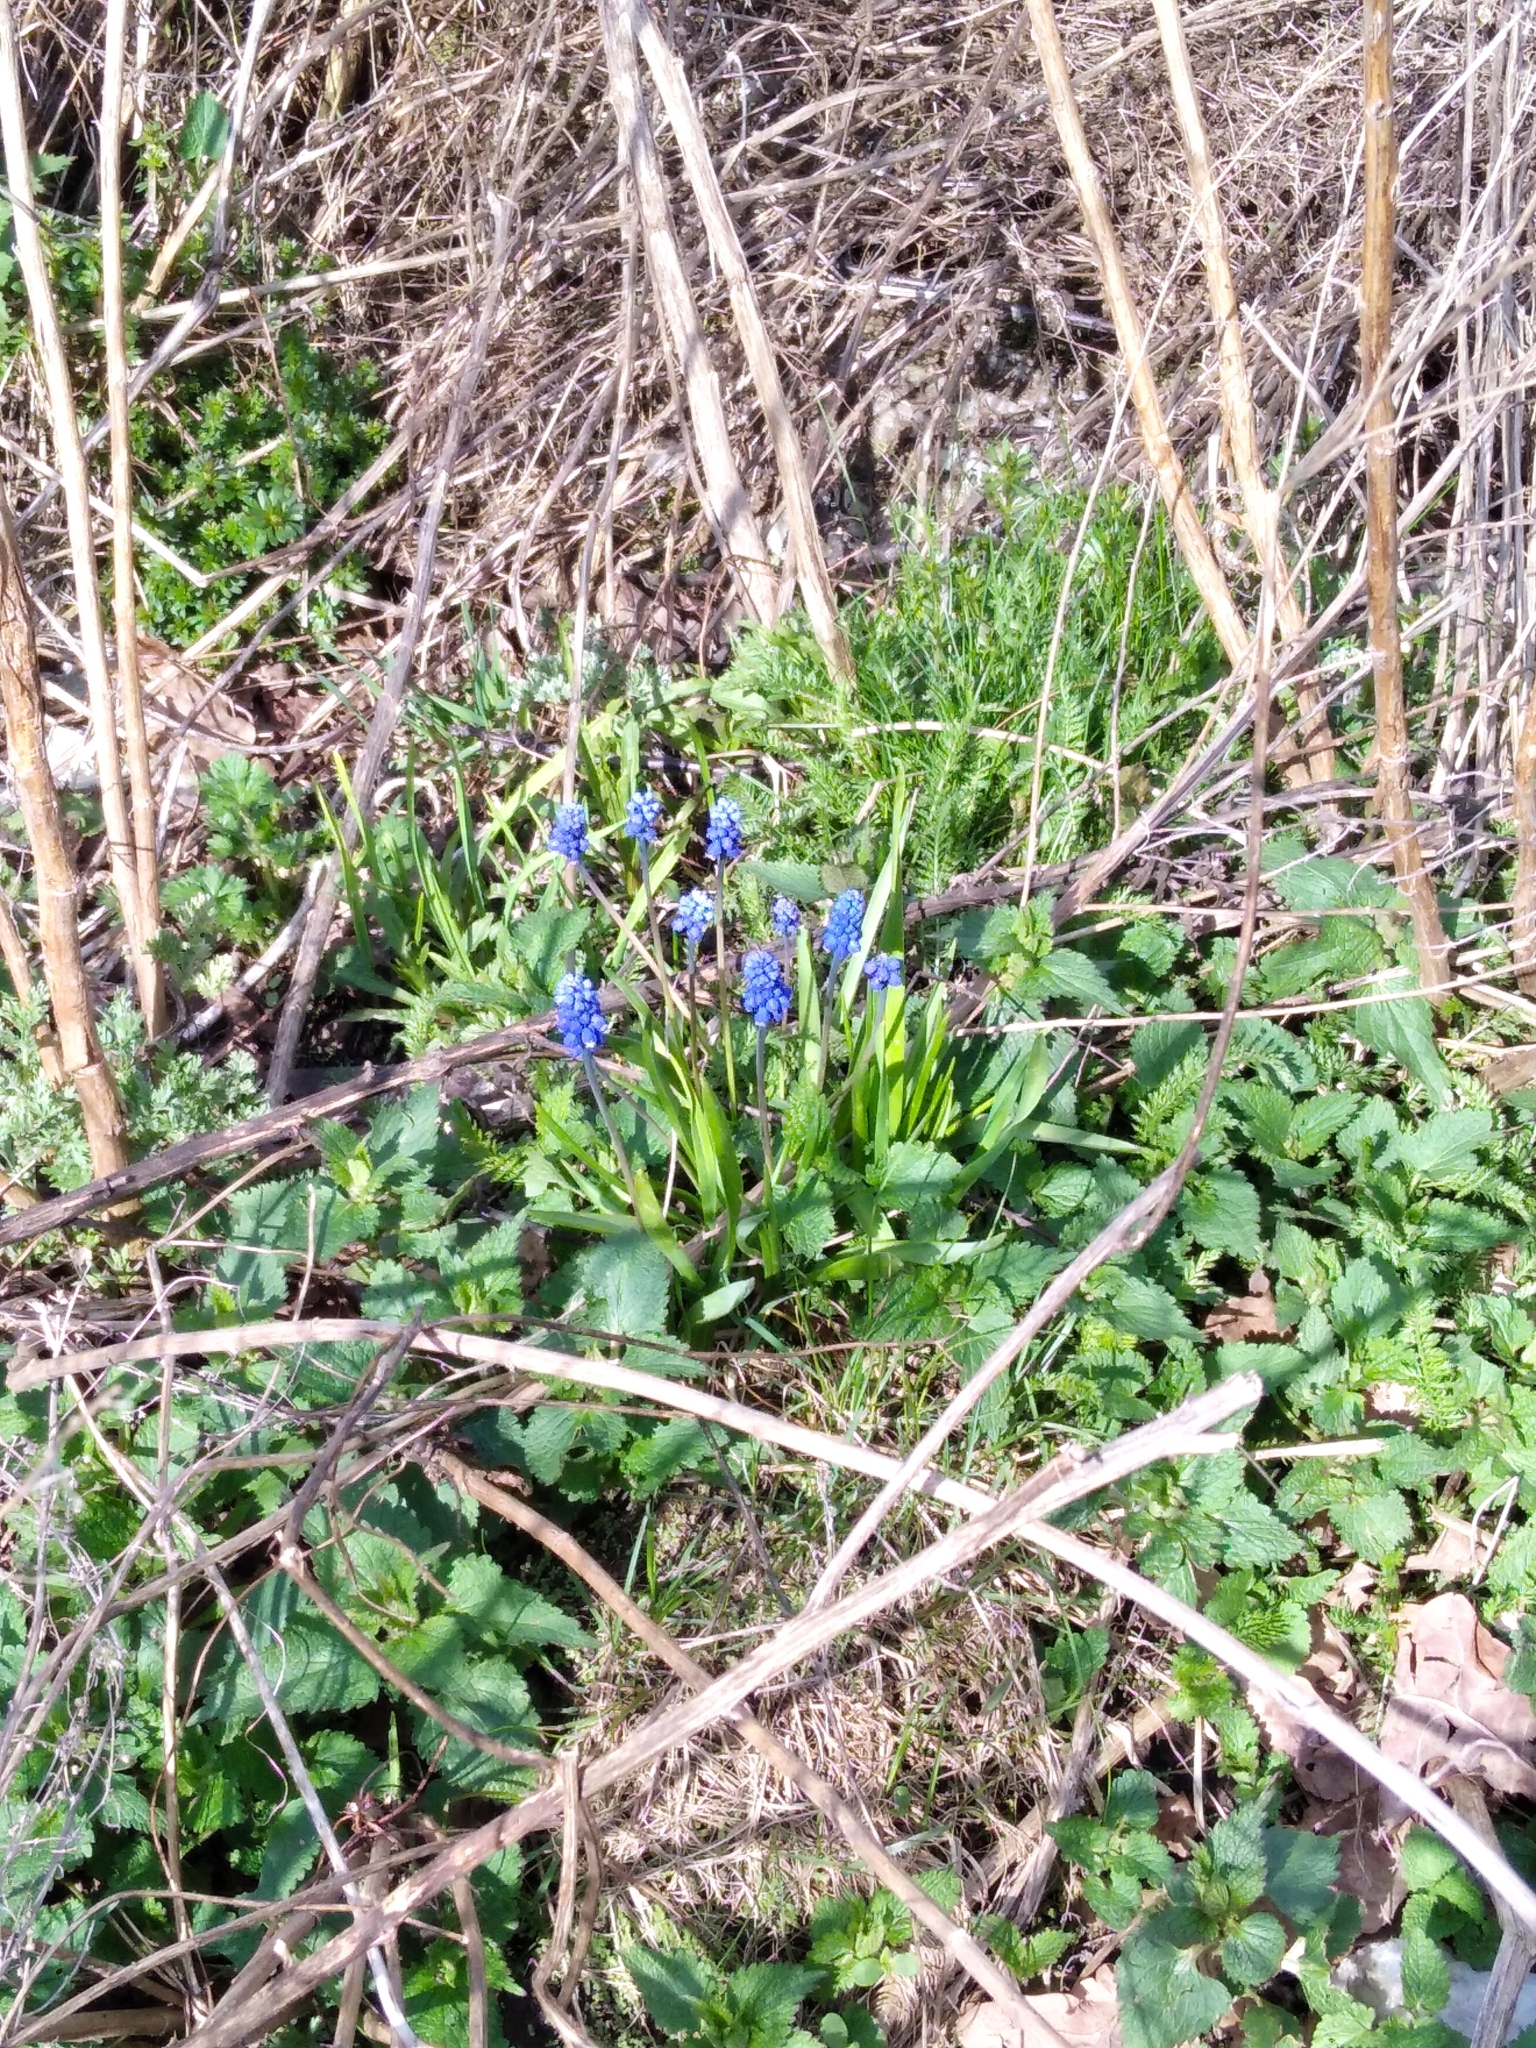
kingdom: Plantae
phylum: Tracheophyta
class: Liliopsida
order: Asparagales
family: Asparagaceae
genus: Muscari
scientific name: Muscari botryoides
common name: Compact grape-hyacinth
